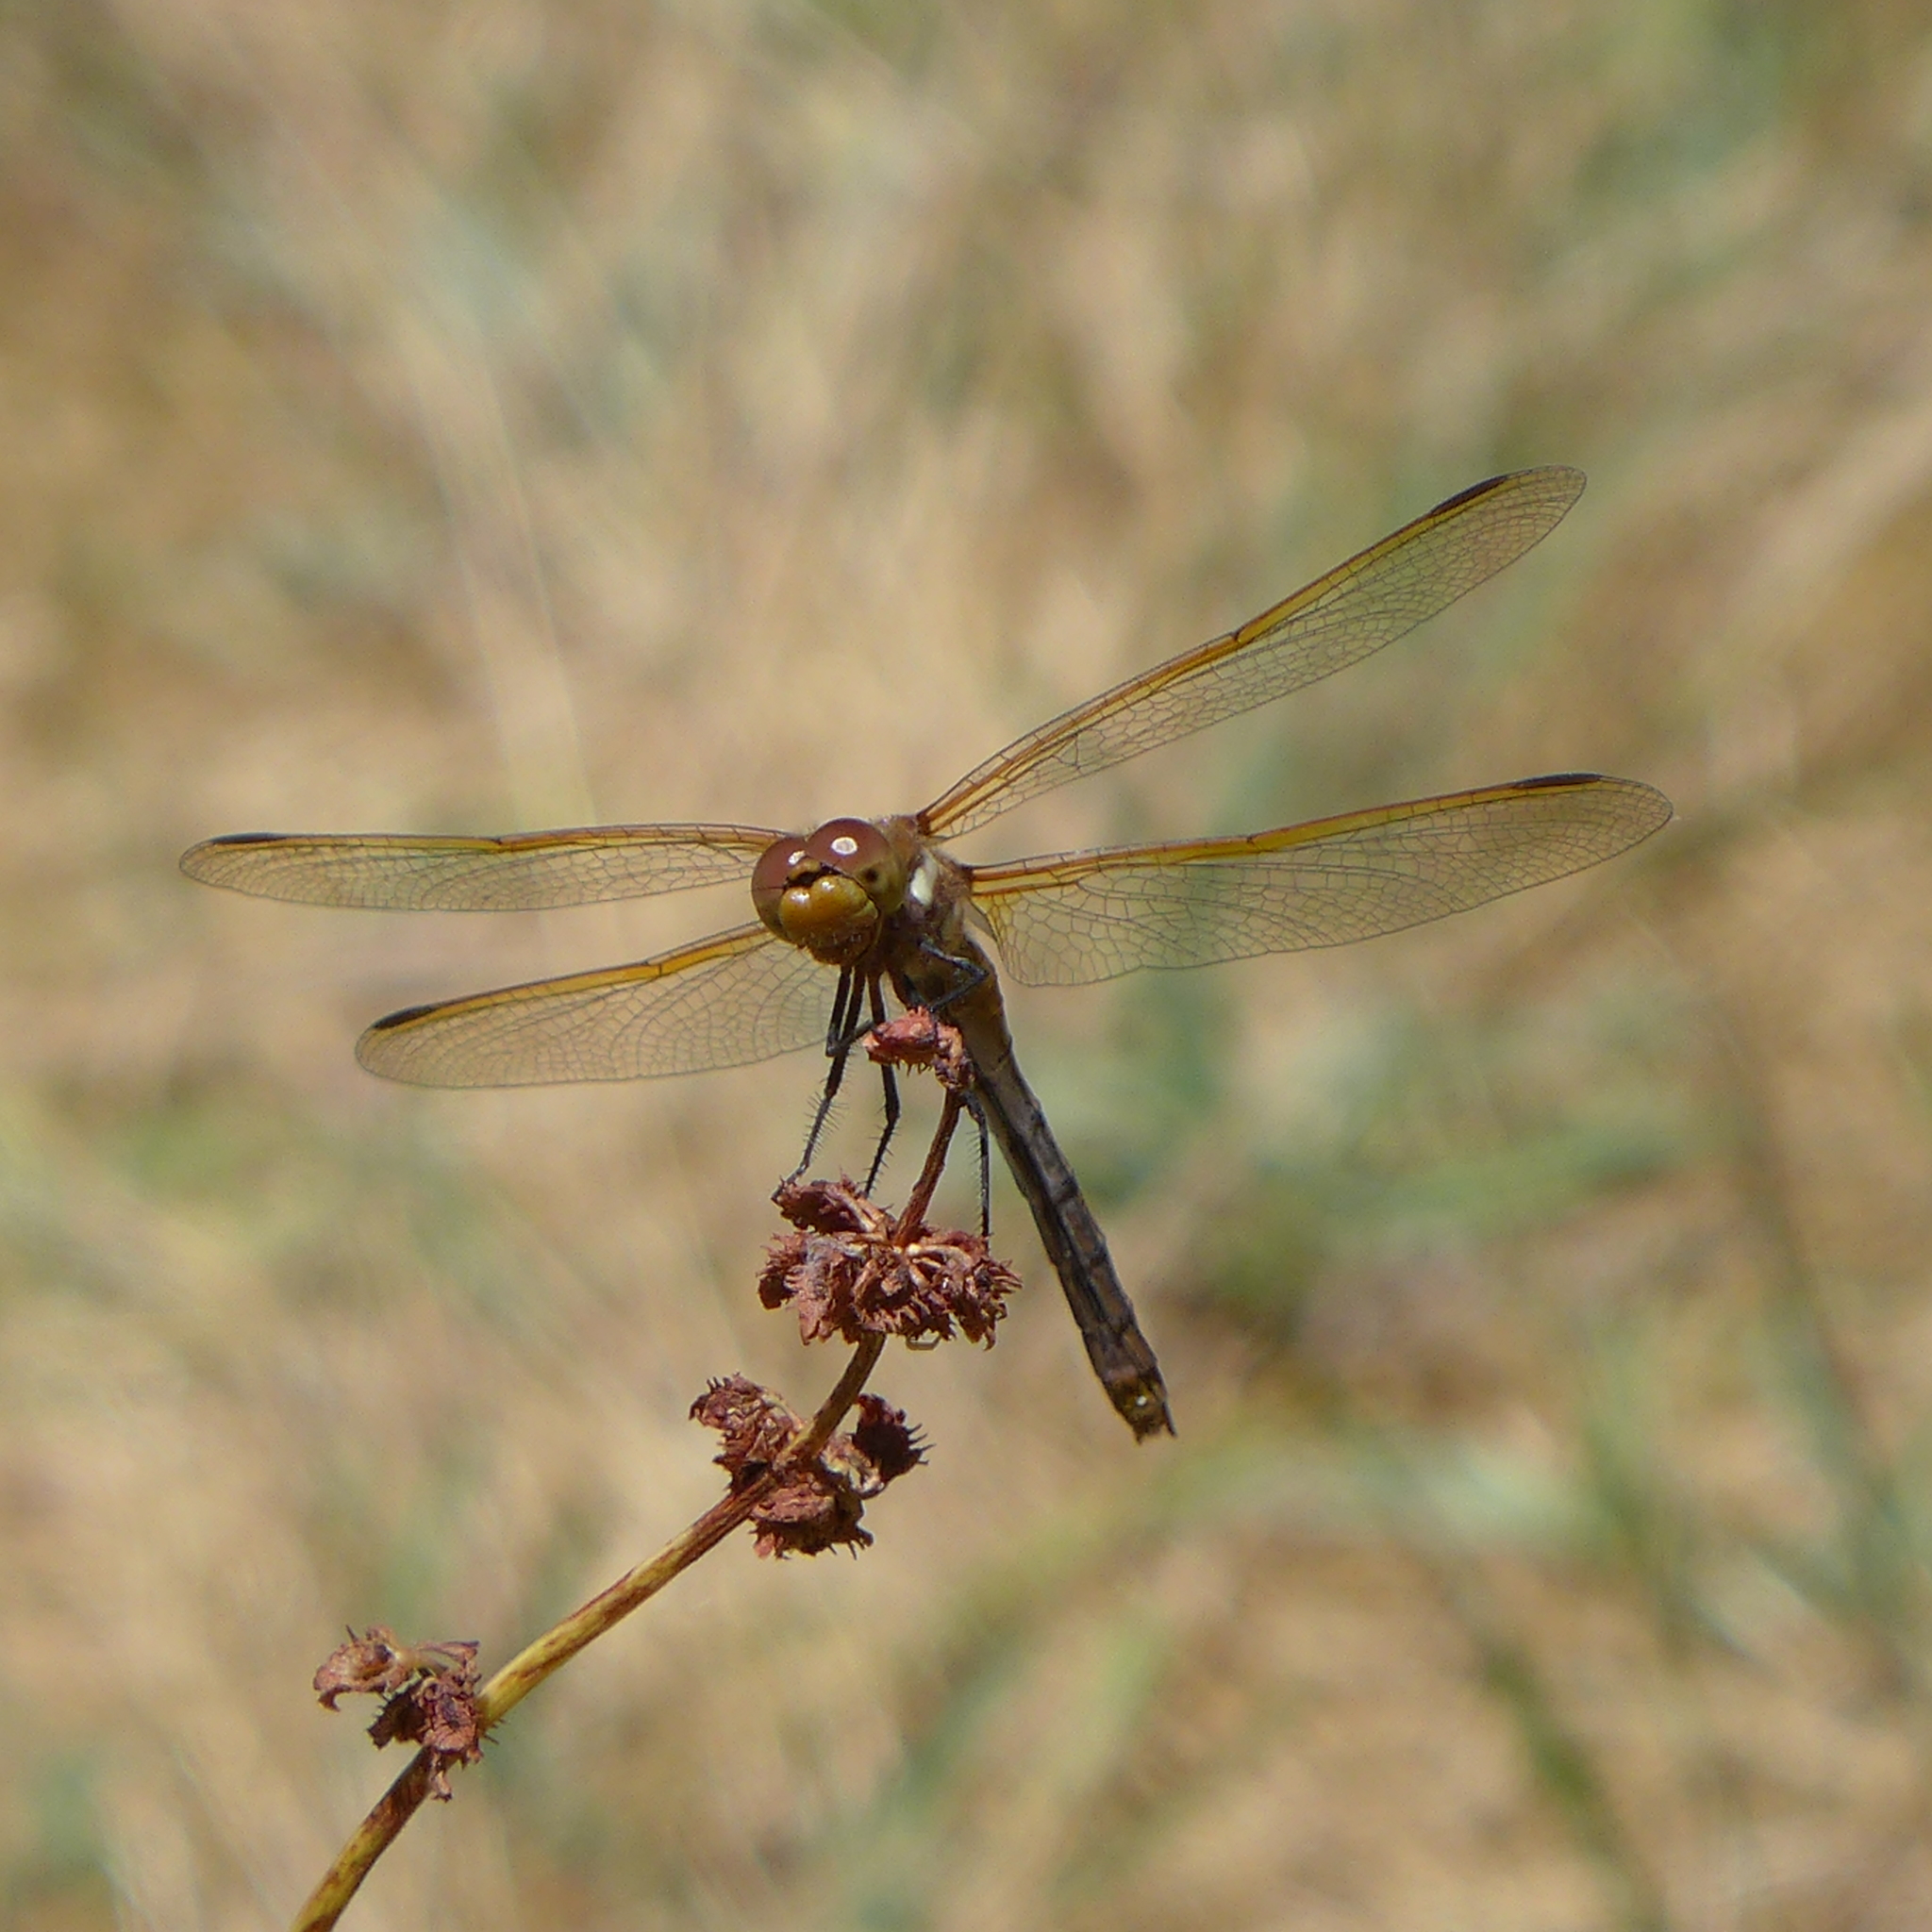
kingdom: Animalia
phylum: Arthropoda
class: Insecta
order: Odonata
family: Libellulidae
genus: Sympetrum
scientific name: Sympetrum madidum
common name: Red-veined meadowhawk
